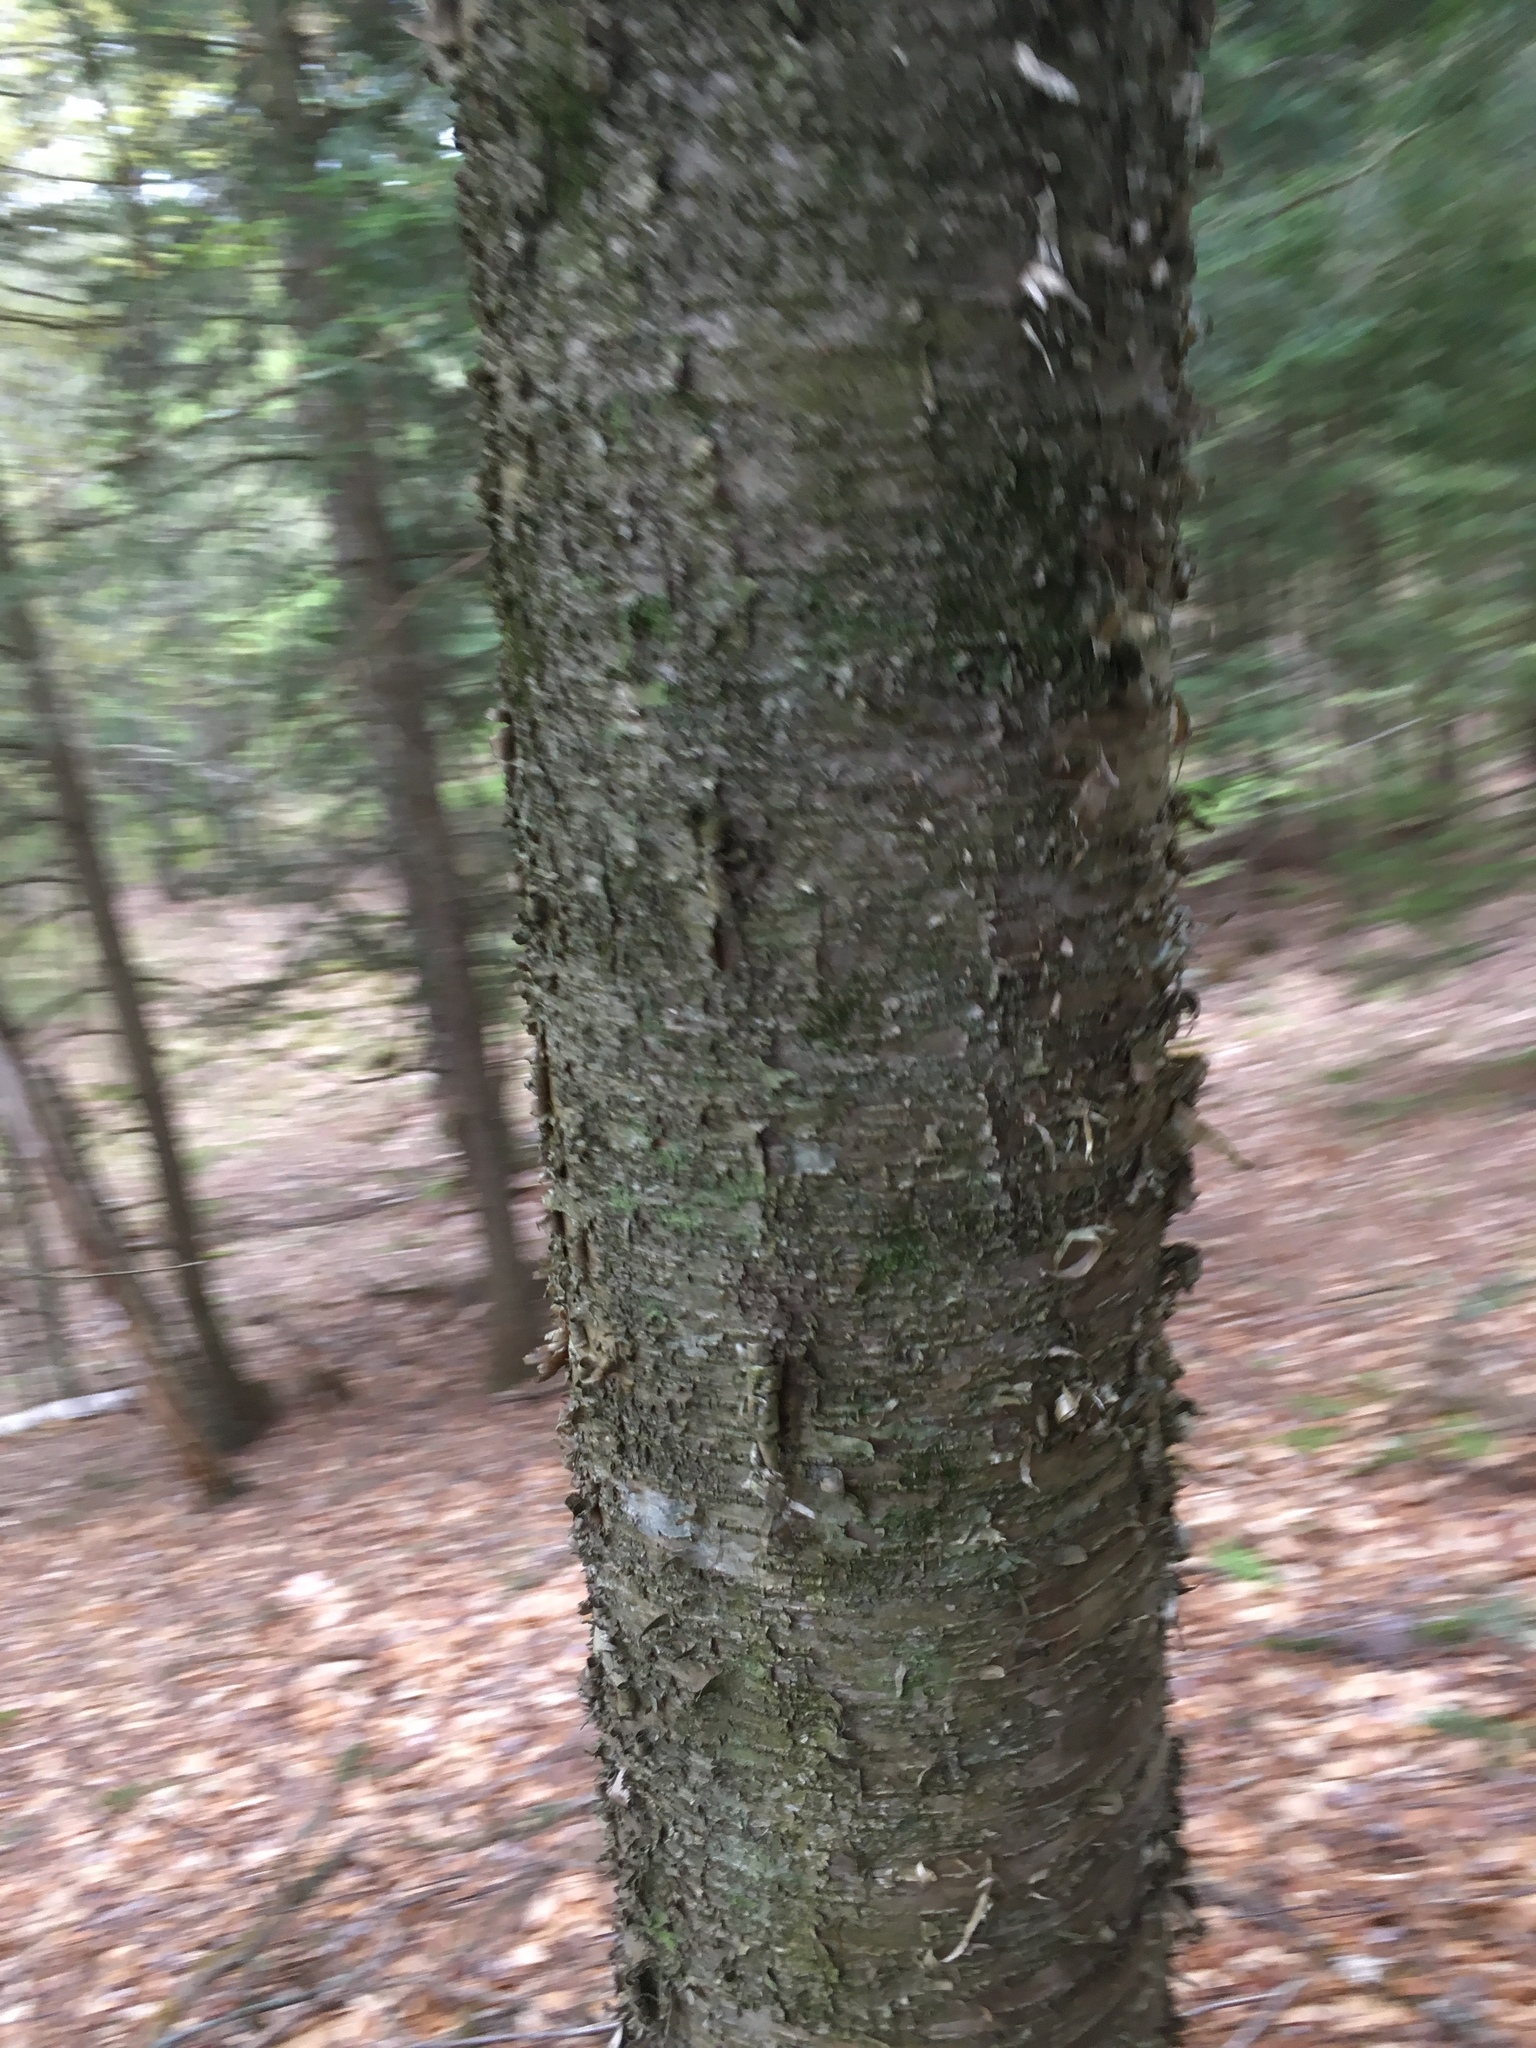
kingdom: Plantae
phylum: Tracheophyta
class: Magnoliopsida
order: Fagales
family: Betulaceae
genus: Betula
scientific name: Betula alleghaniensis
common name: Yellow birch
